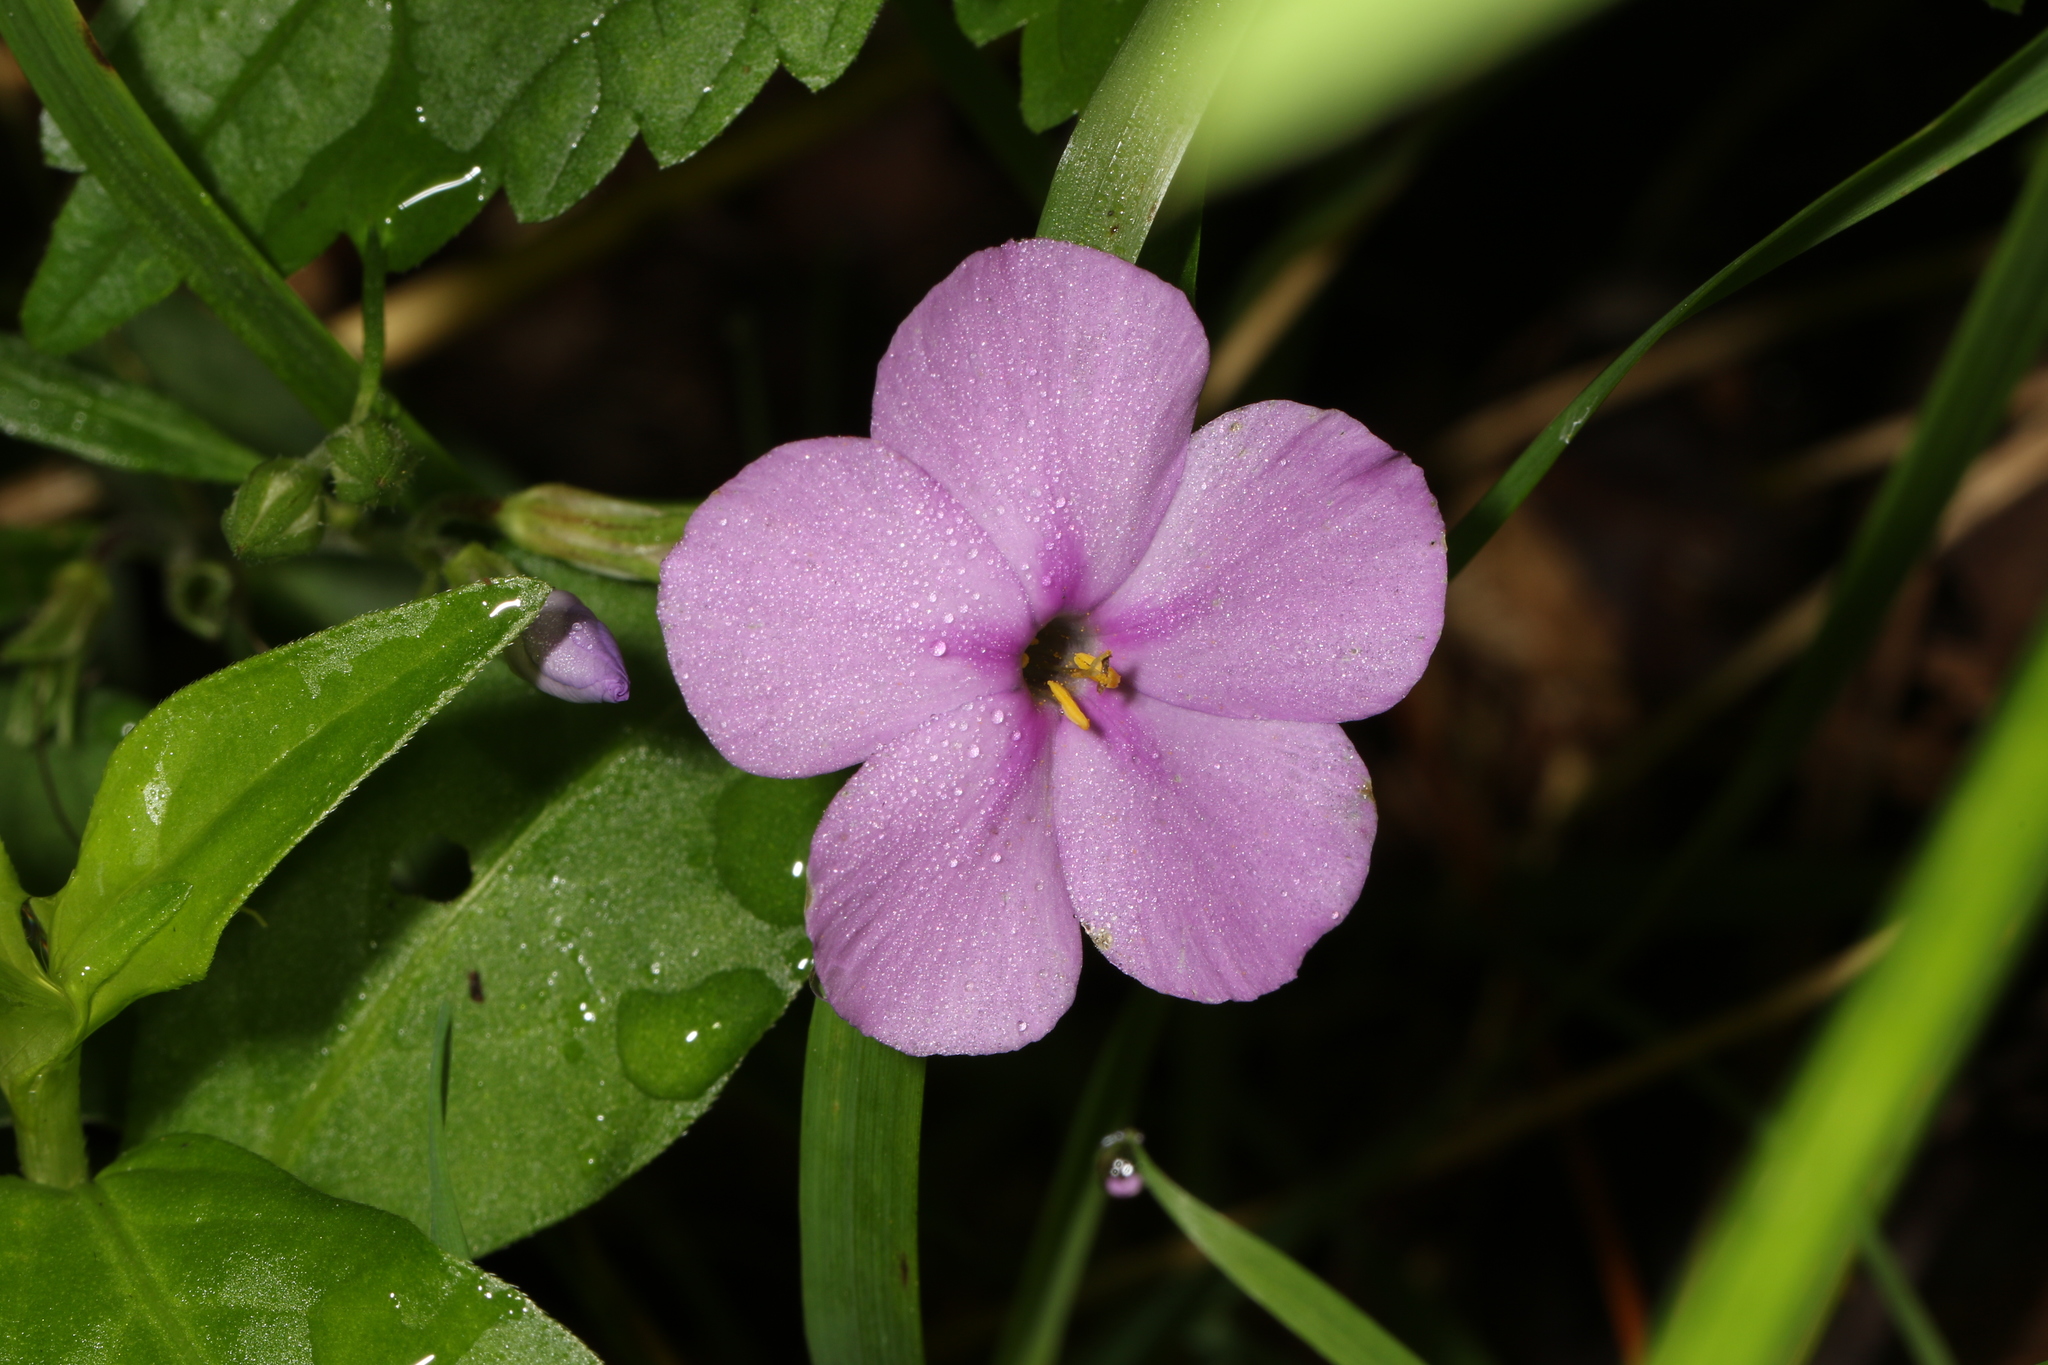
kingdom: Plantae
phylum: Tracheophyta
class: Magnoliopsida
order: Ericales
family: Polemoniaceae
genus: Phlox
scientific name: Phlox carolina
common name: Thick-leaf phlox
